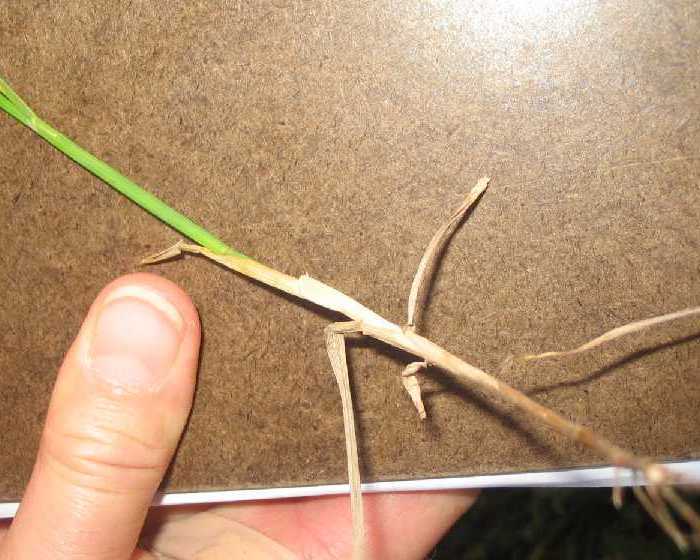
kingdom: Plantae
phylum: Tracheophyta
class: Liliopsida
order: Poales
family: Poaceae
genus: Poa
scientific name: Poa compressa
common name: Canada bluegrass
